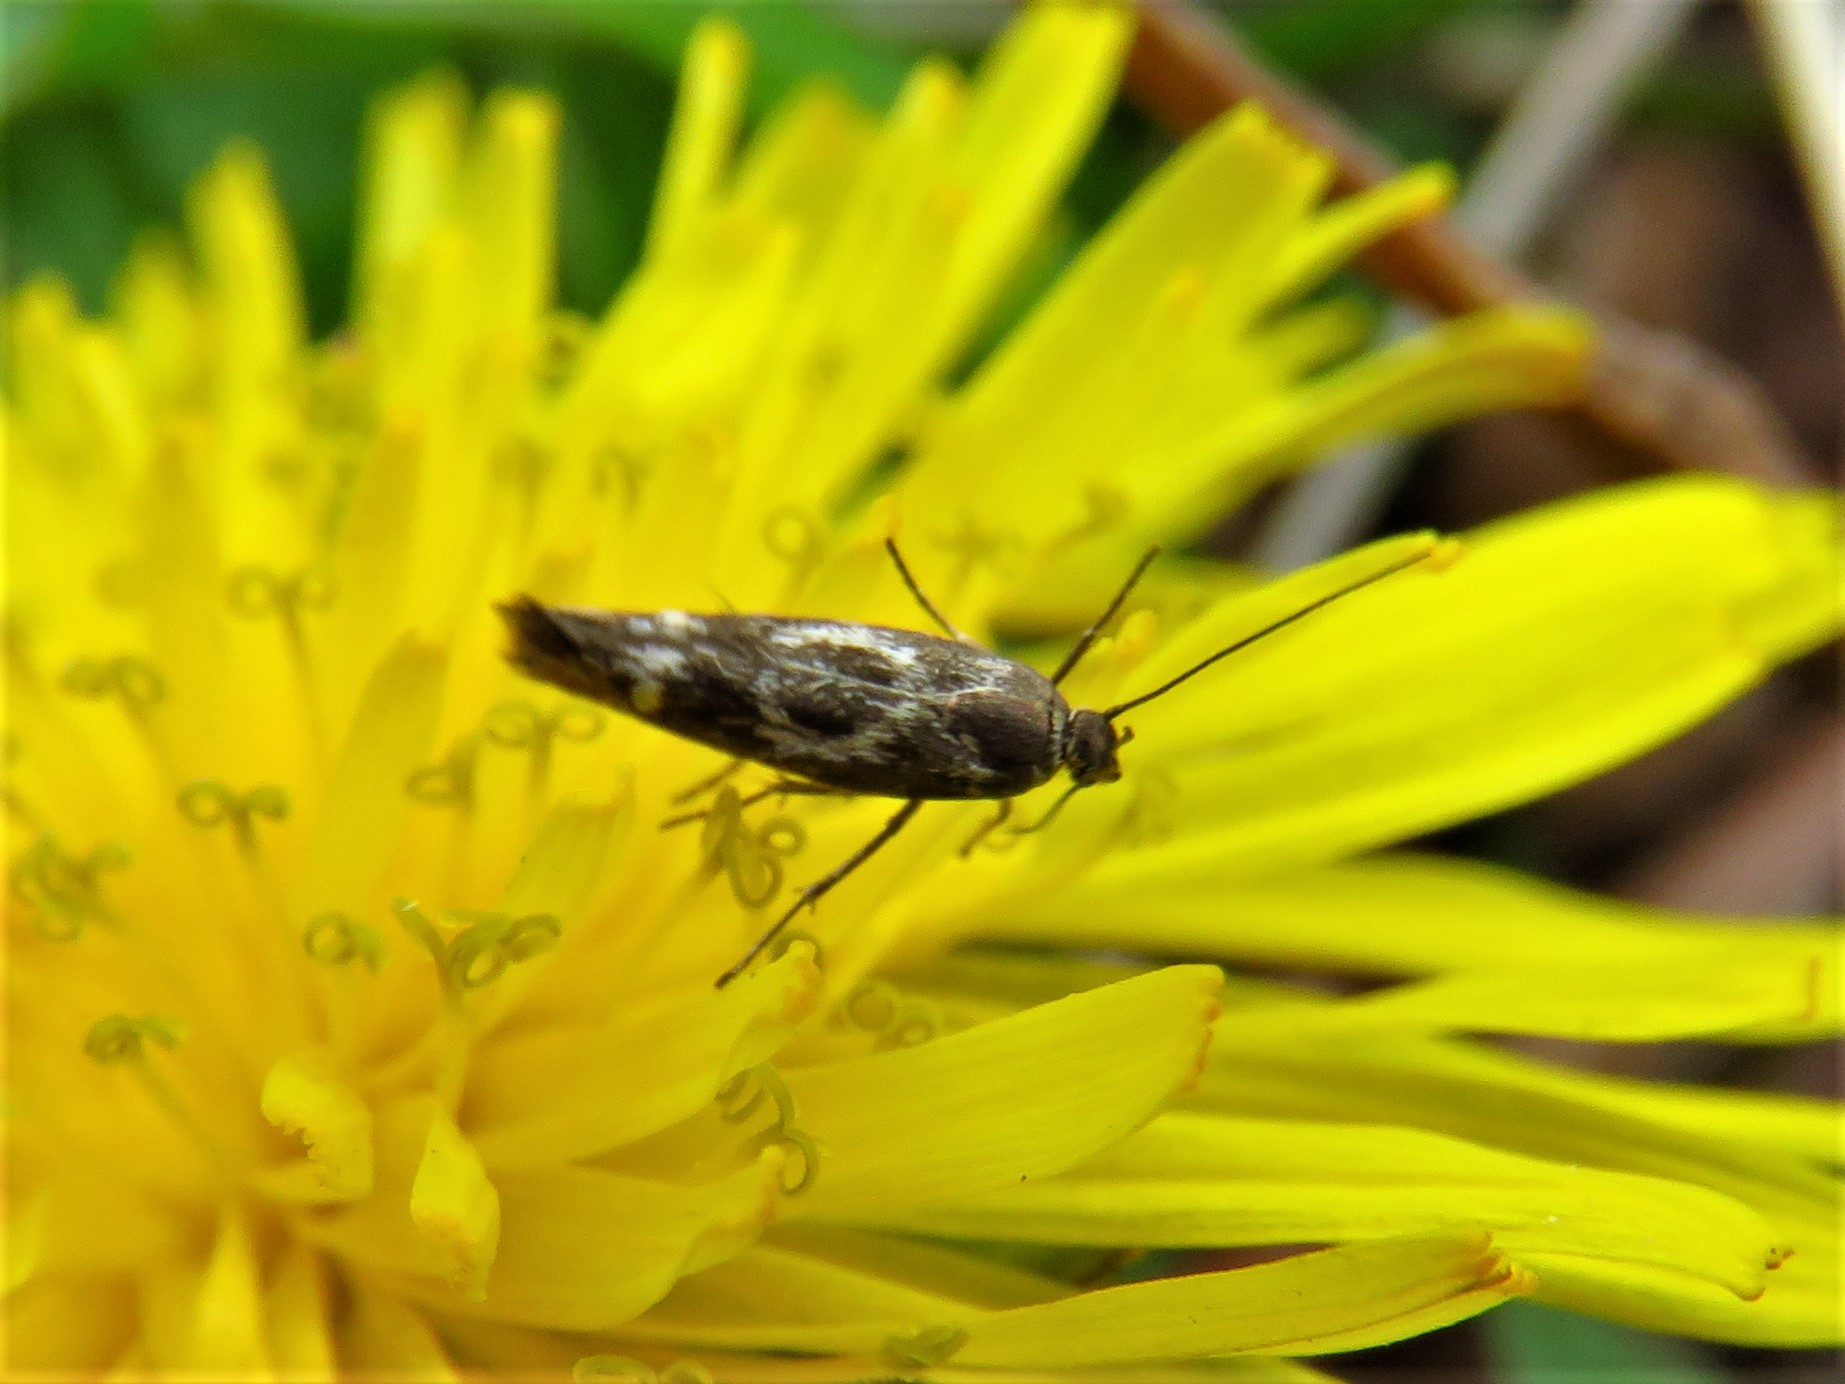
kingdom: Animalia
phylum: Arthropoda
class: Insecta
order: Lepidoptera
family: Scythrididae
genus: Scythris
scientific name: Scythris trivinctella
